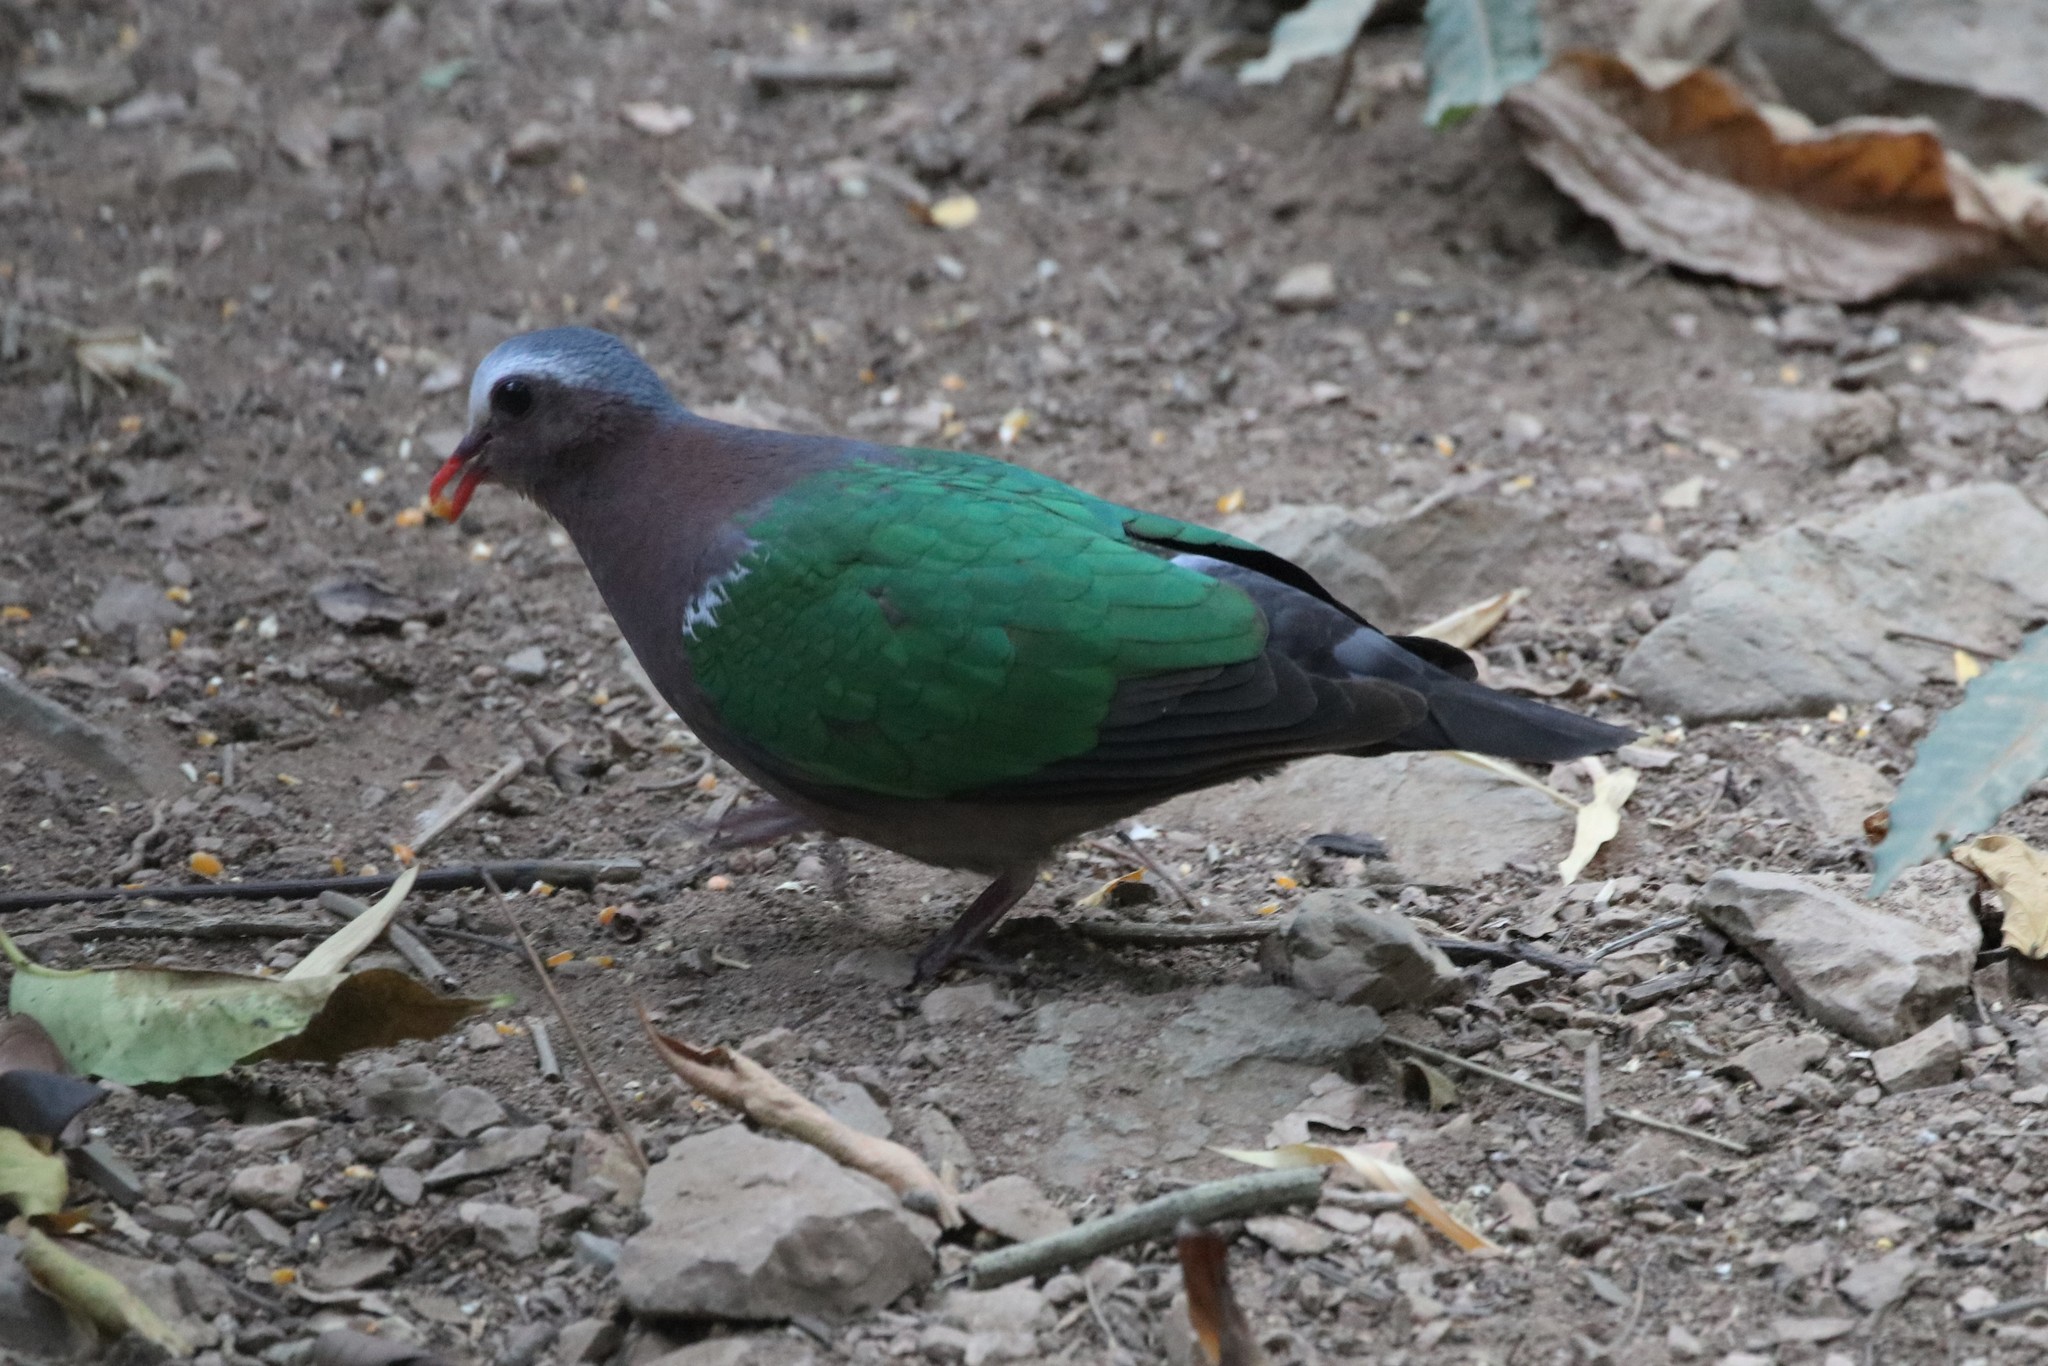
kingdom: Animalia
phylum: Chordata
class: Aves
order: Columbiformes
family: Columbidae
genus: Chalcophaps
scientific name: Chalcophaps indica
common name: Common emerald dove
